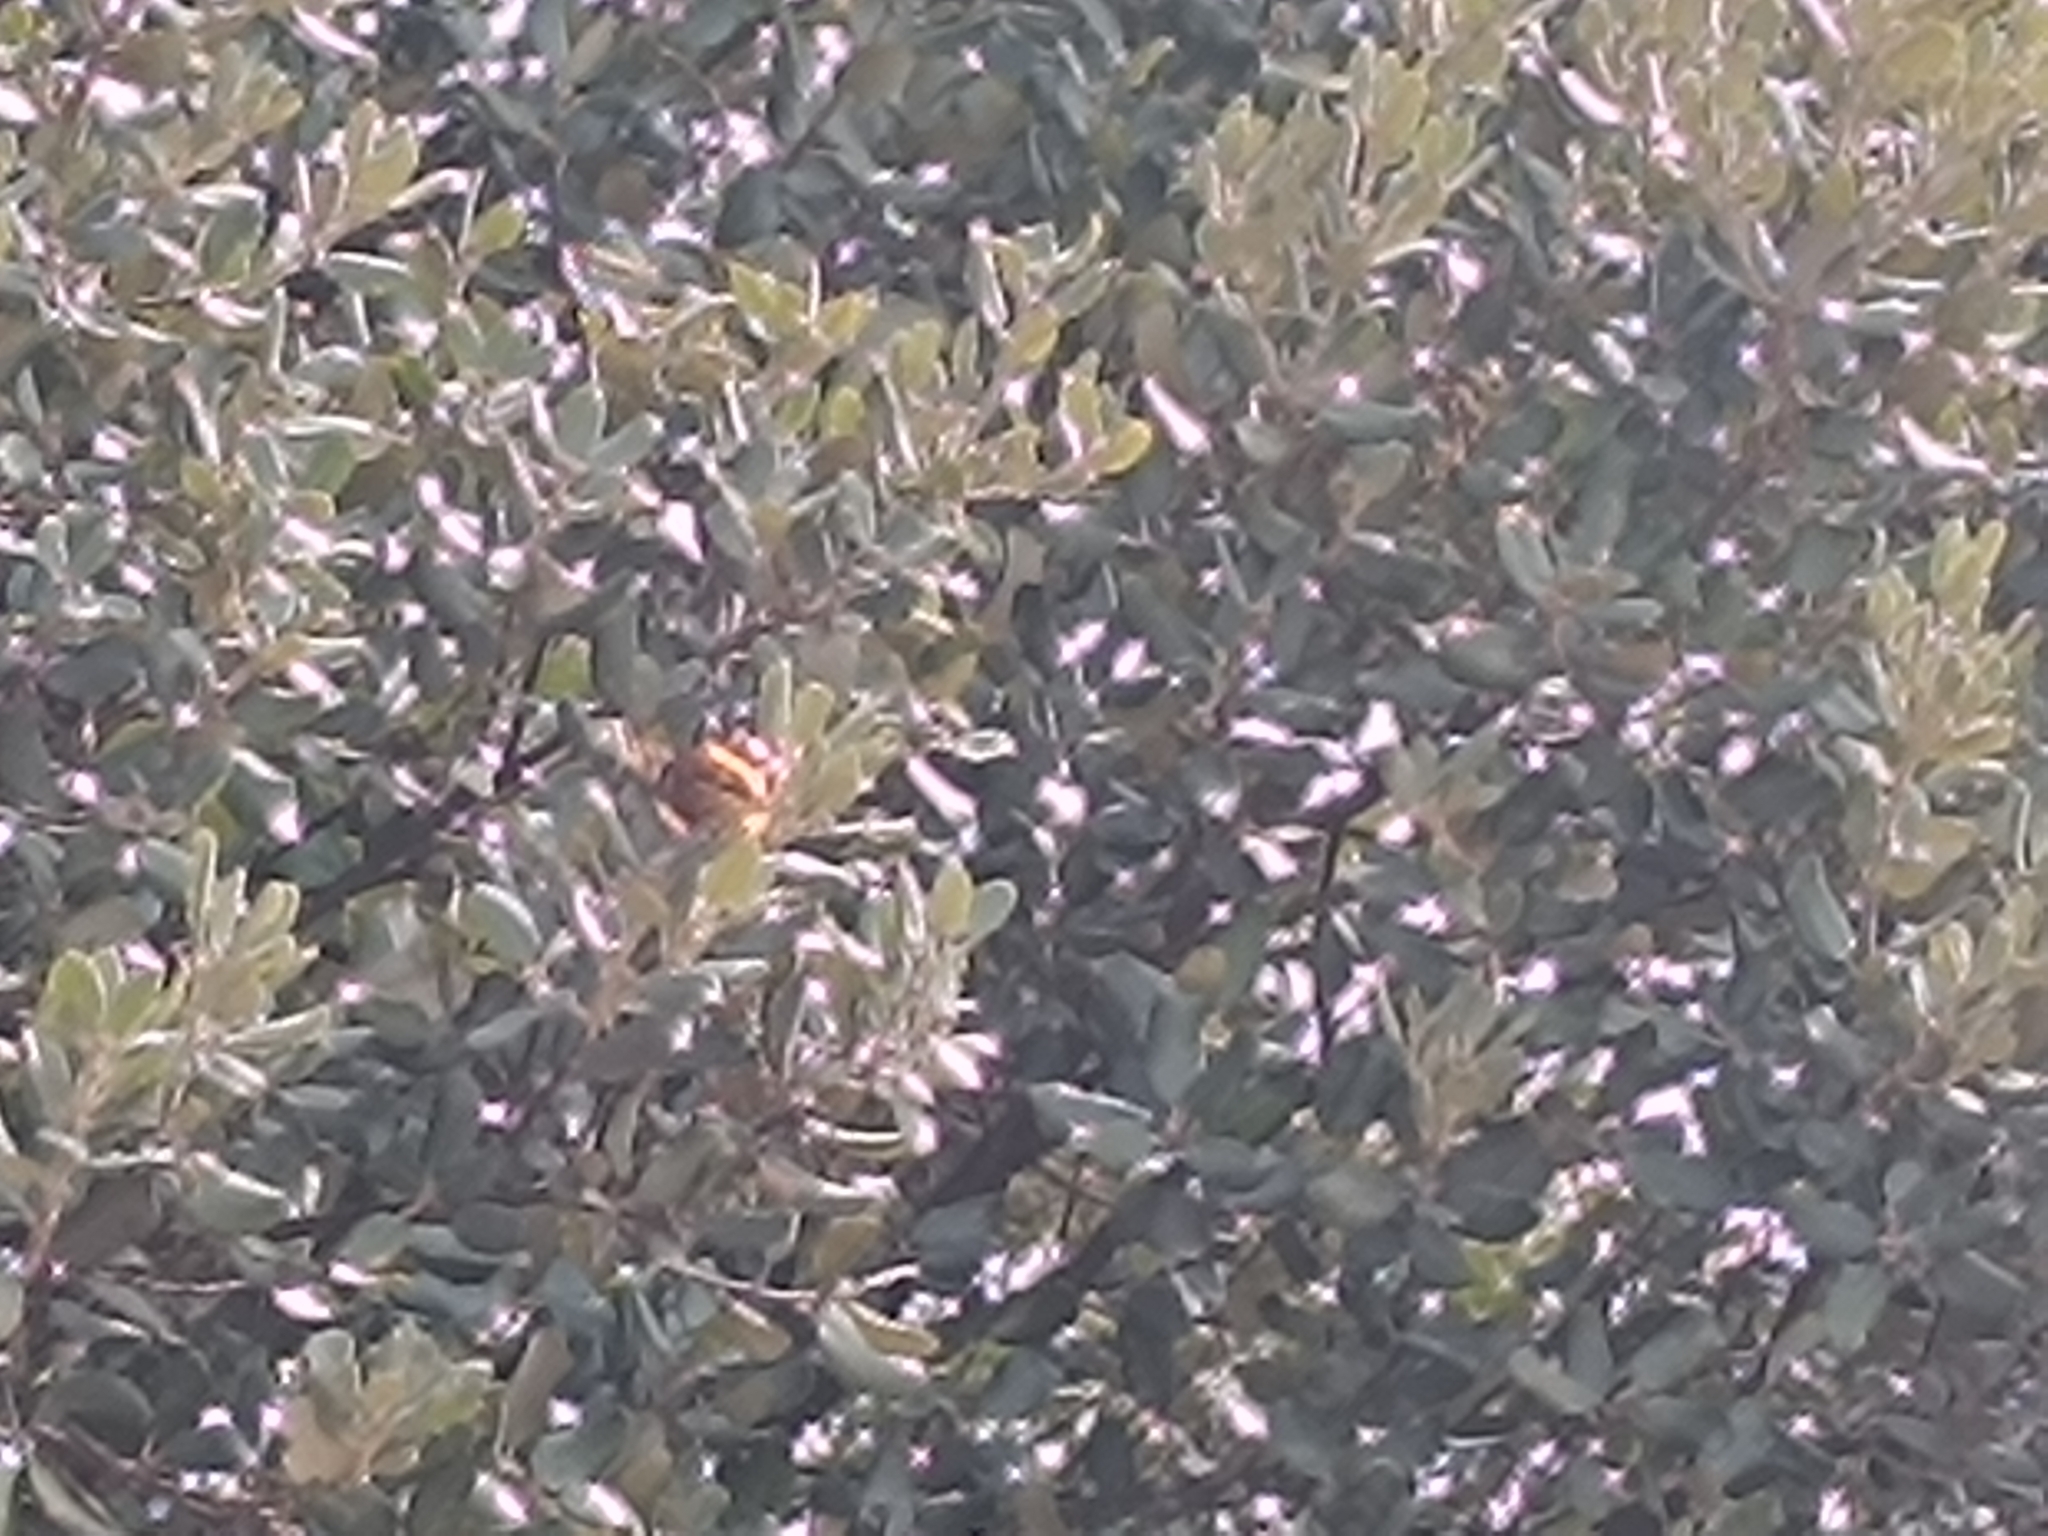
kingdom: Animalia
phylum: Arthropoda
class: Insecta
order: Lepidoptera
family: Nymphalidae
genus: Vanessa
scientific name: Vanessa atalanta
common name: Red admiral
